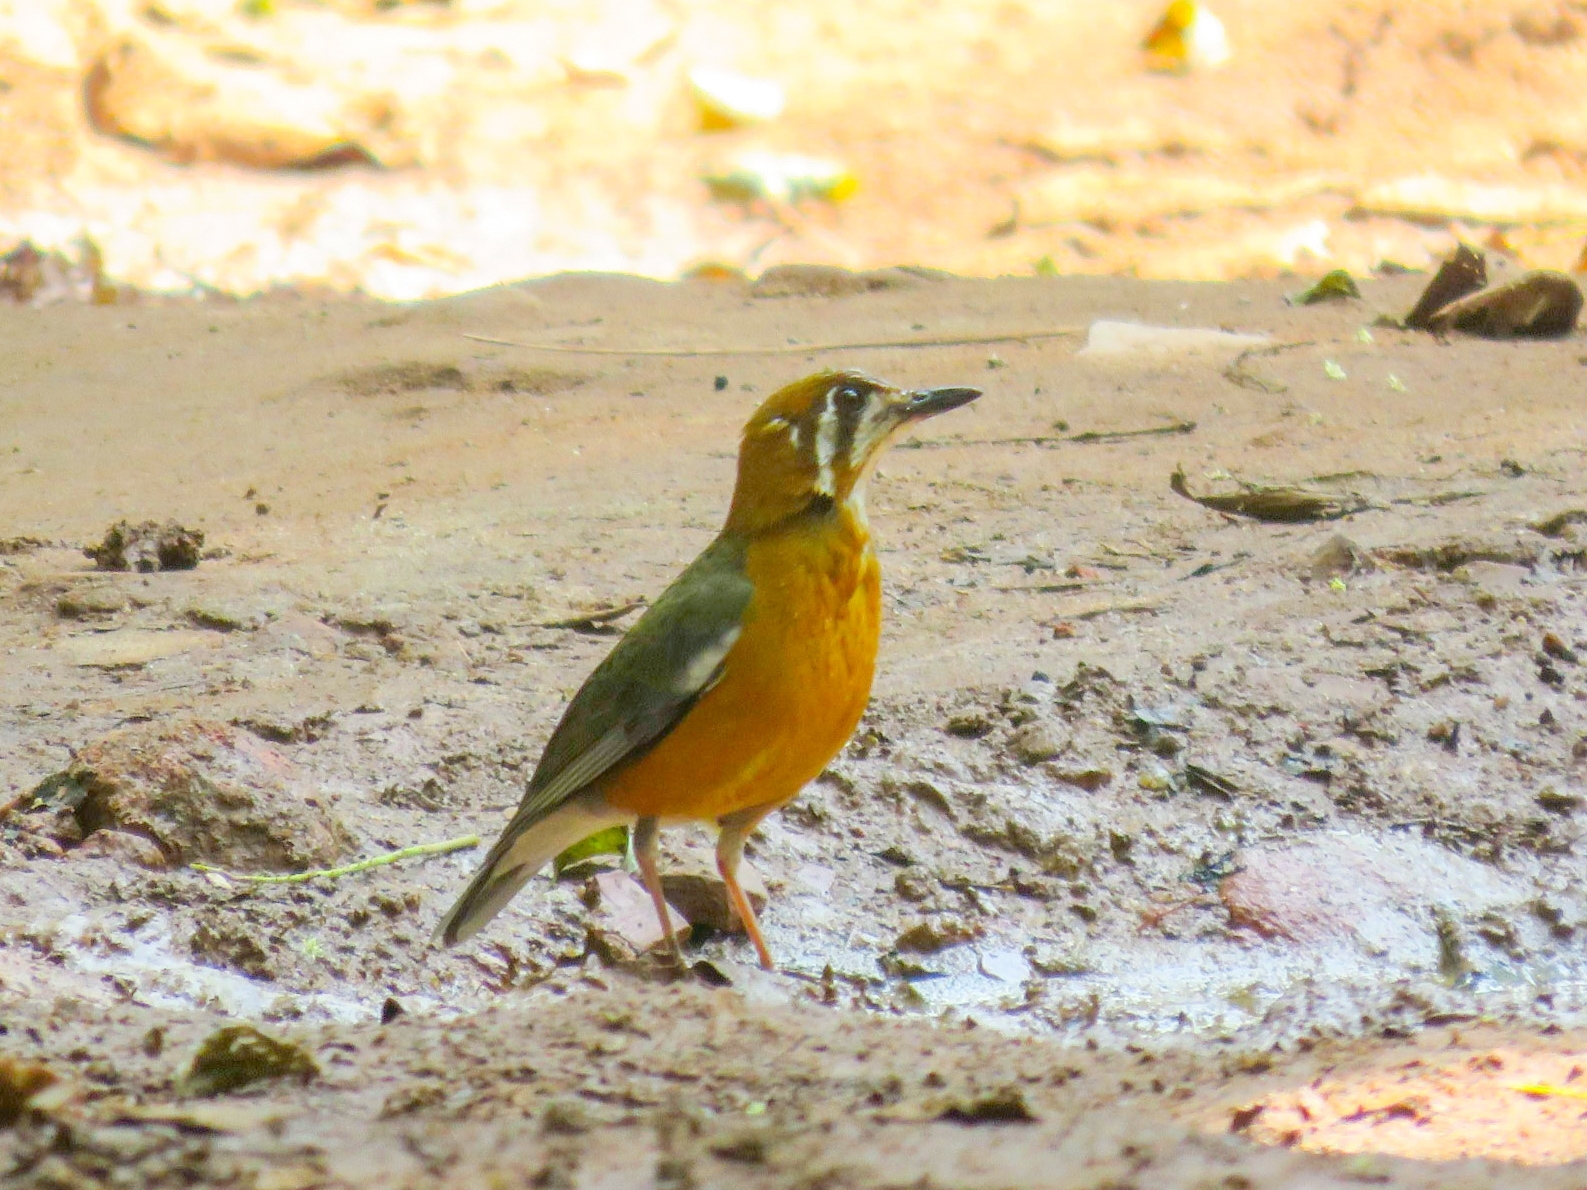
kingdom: Animalia
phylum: Chordata
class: Aves
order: Passeriformes
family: Turdidae
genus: Geokichla
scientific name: Geokichla citrina
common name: Orange-headed thrush
